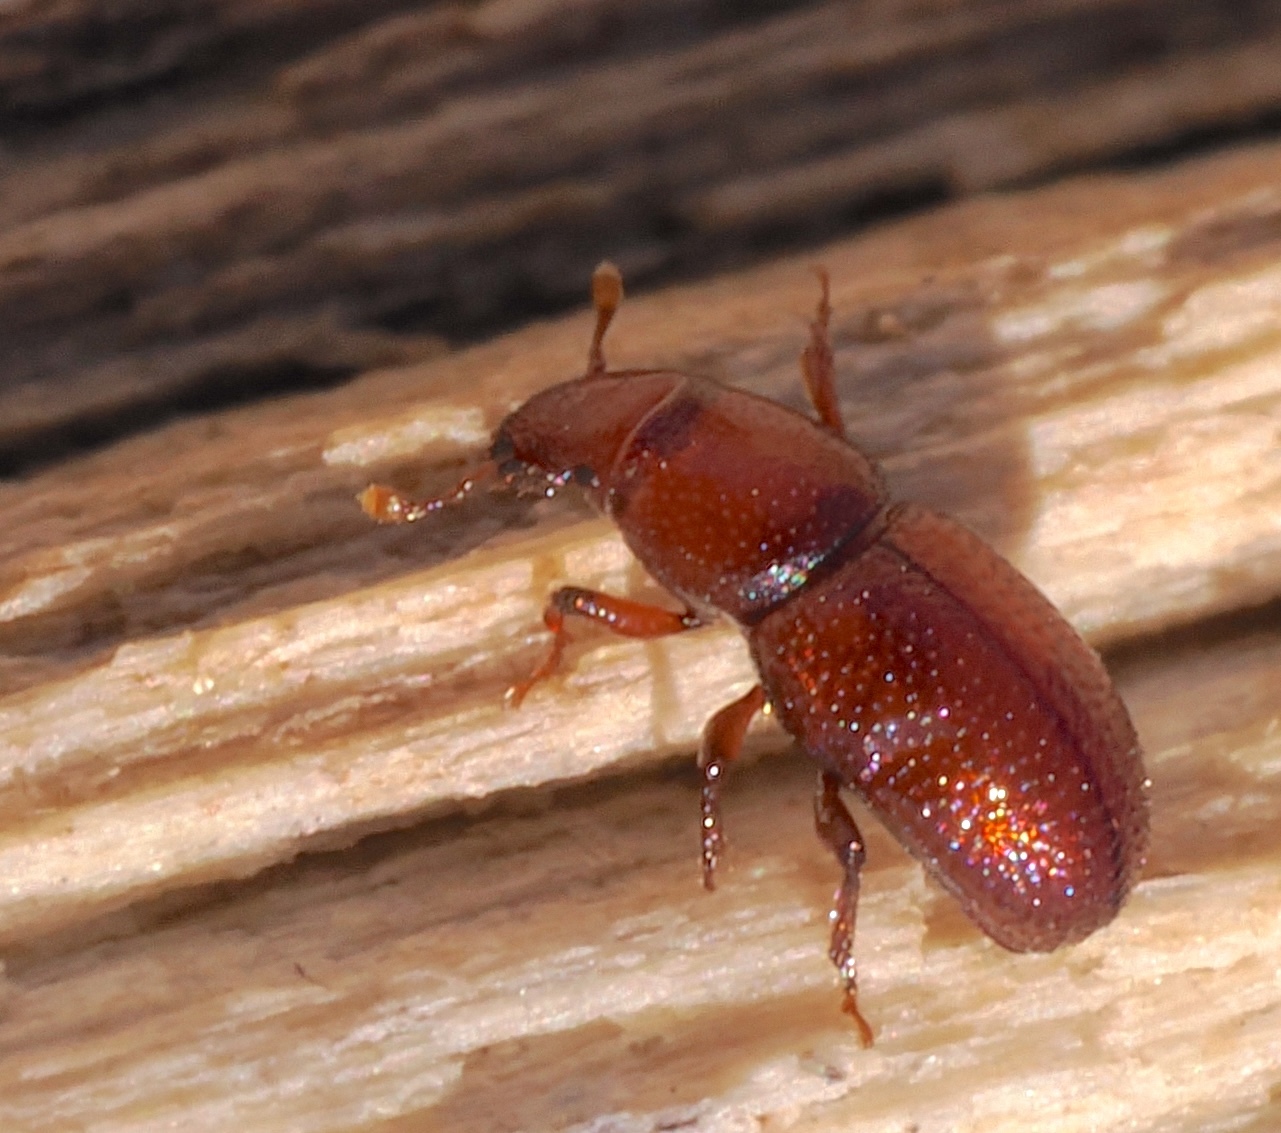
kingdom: Animalia
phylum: Arthropoda
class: Insecta
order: Coleoptera
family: Curculionidae
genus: Elassoptes
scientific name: Elassoptes marinus
